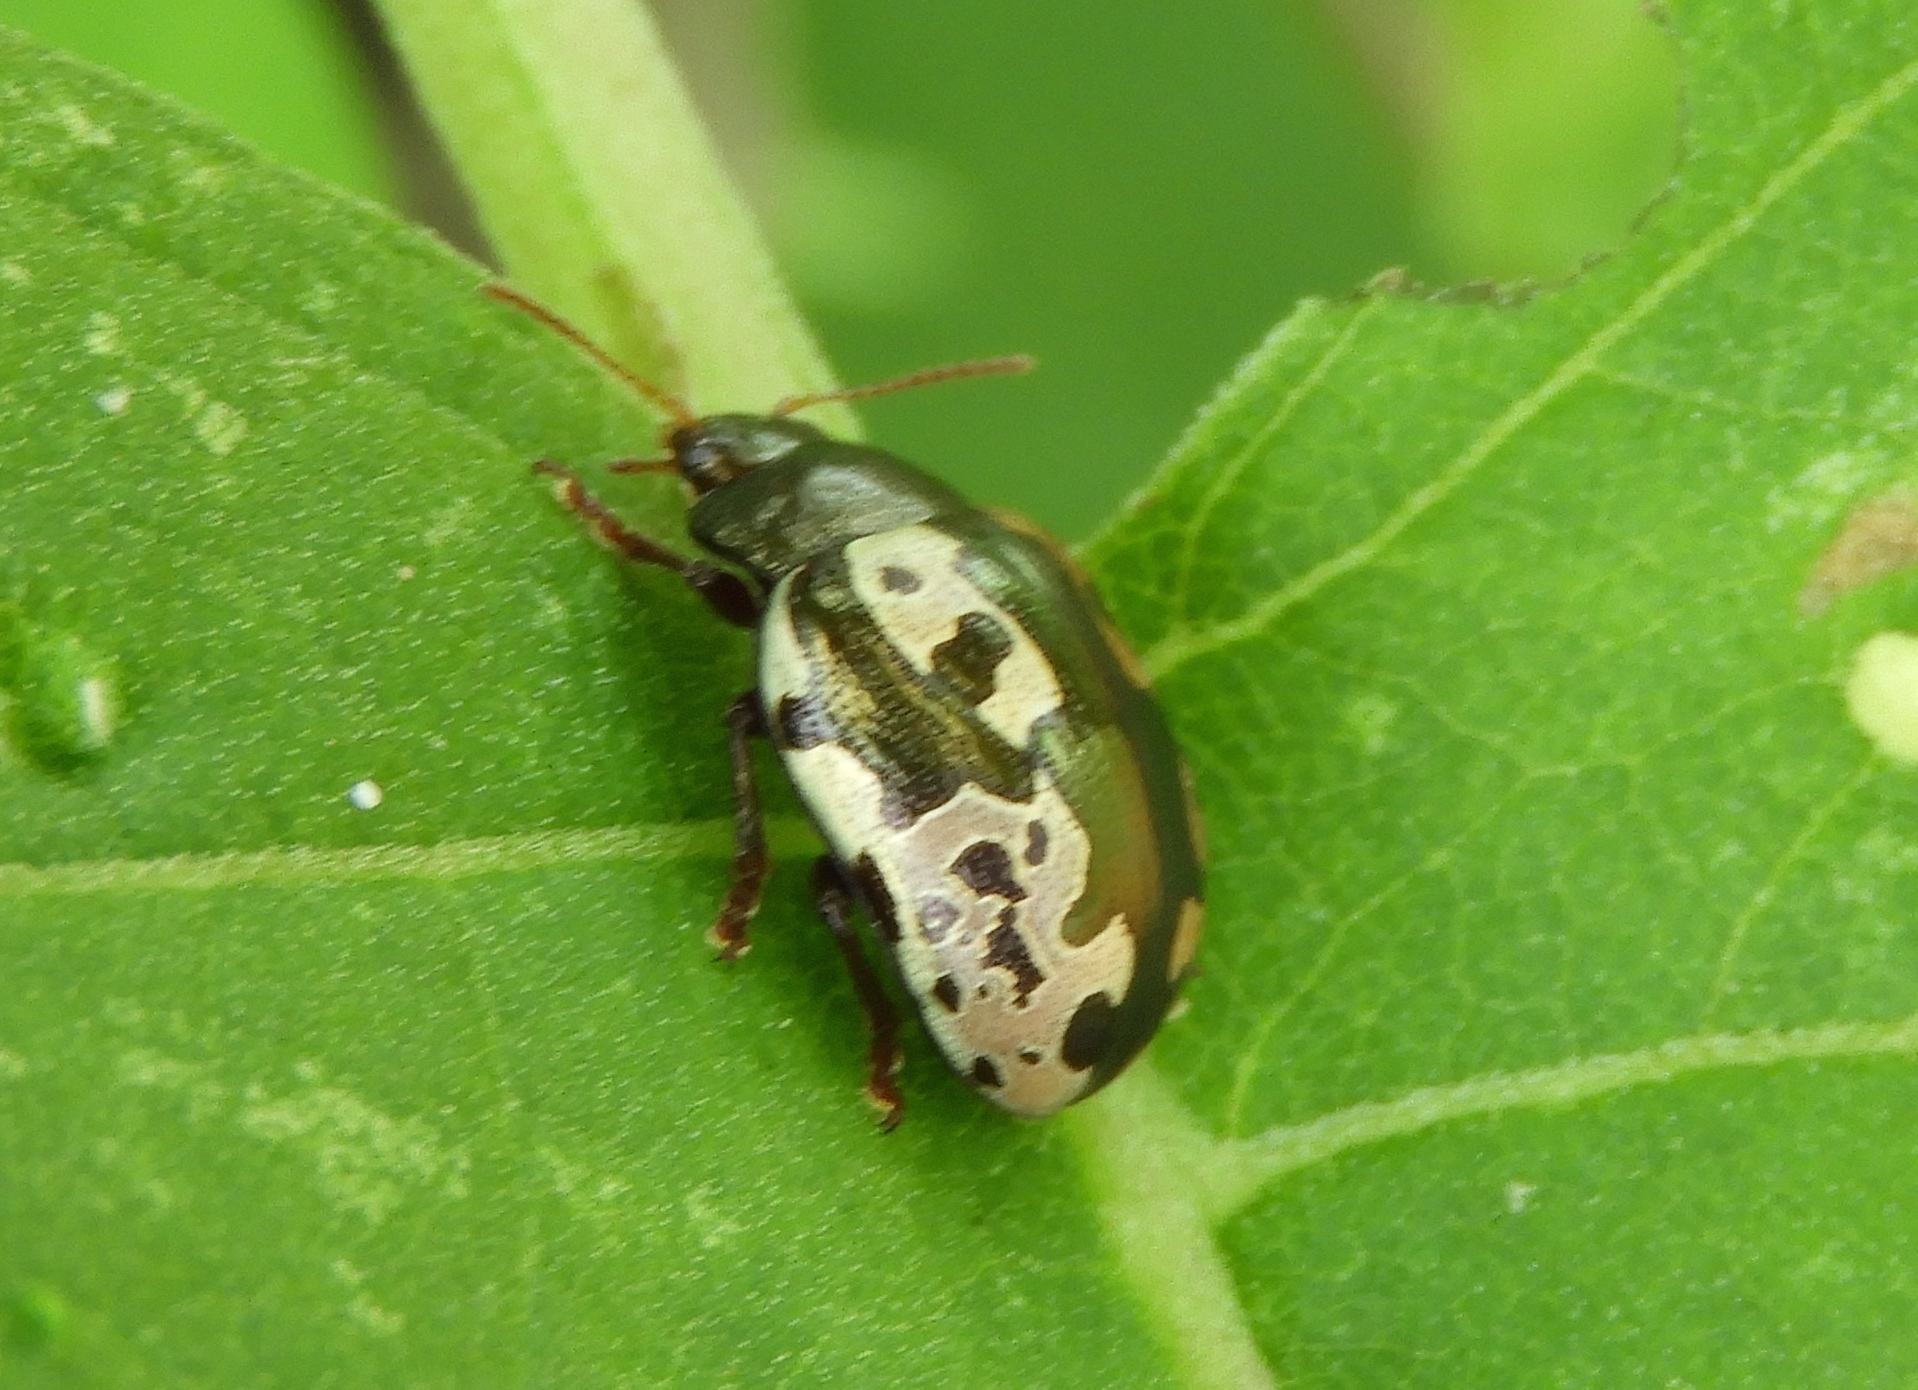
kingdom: Animalia
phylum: Arthropoda
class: Insecta
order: Coleoptera
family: Chrysomelidae
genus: Calligrapha
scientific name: Calligrapha intermedia
